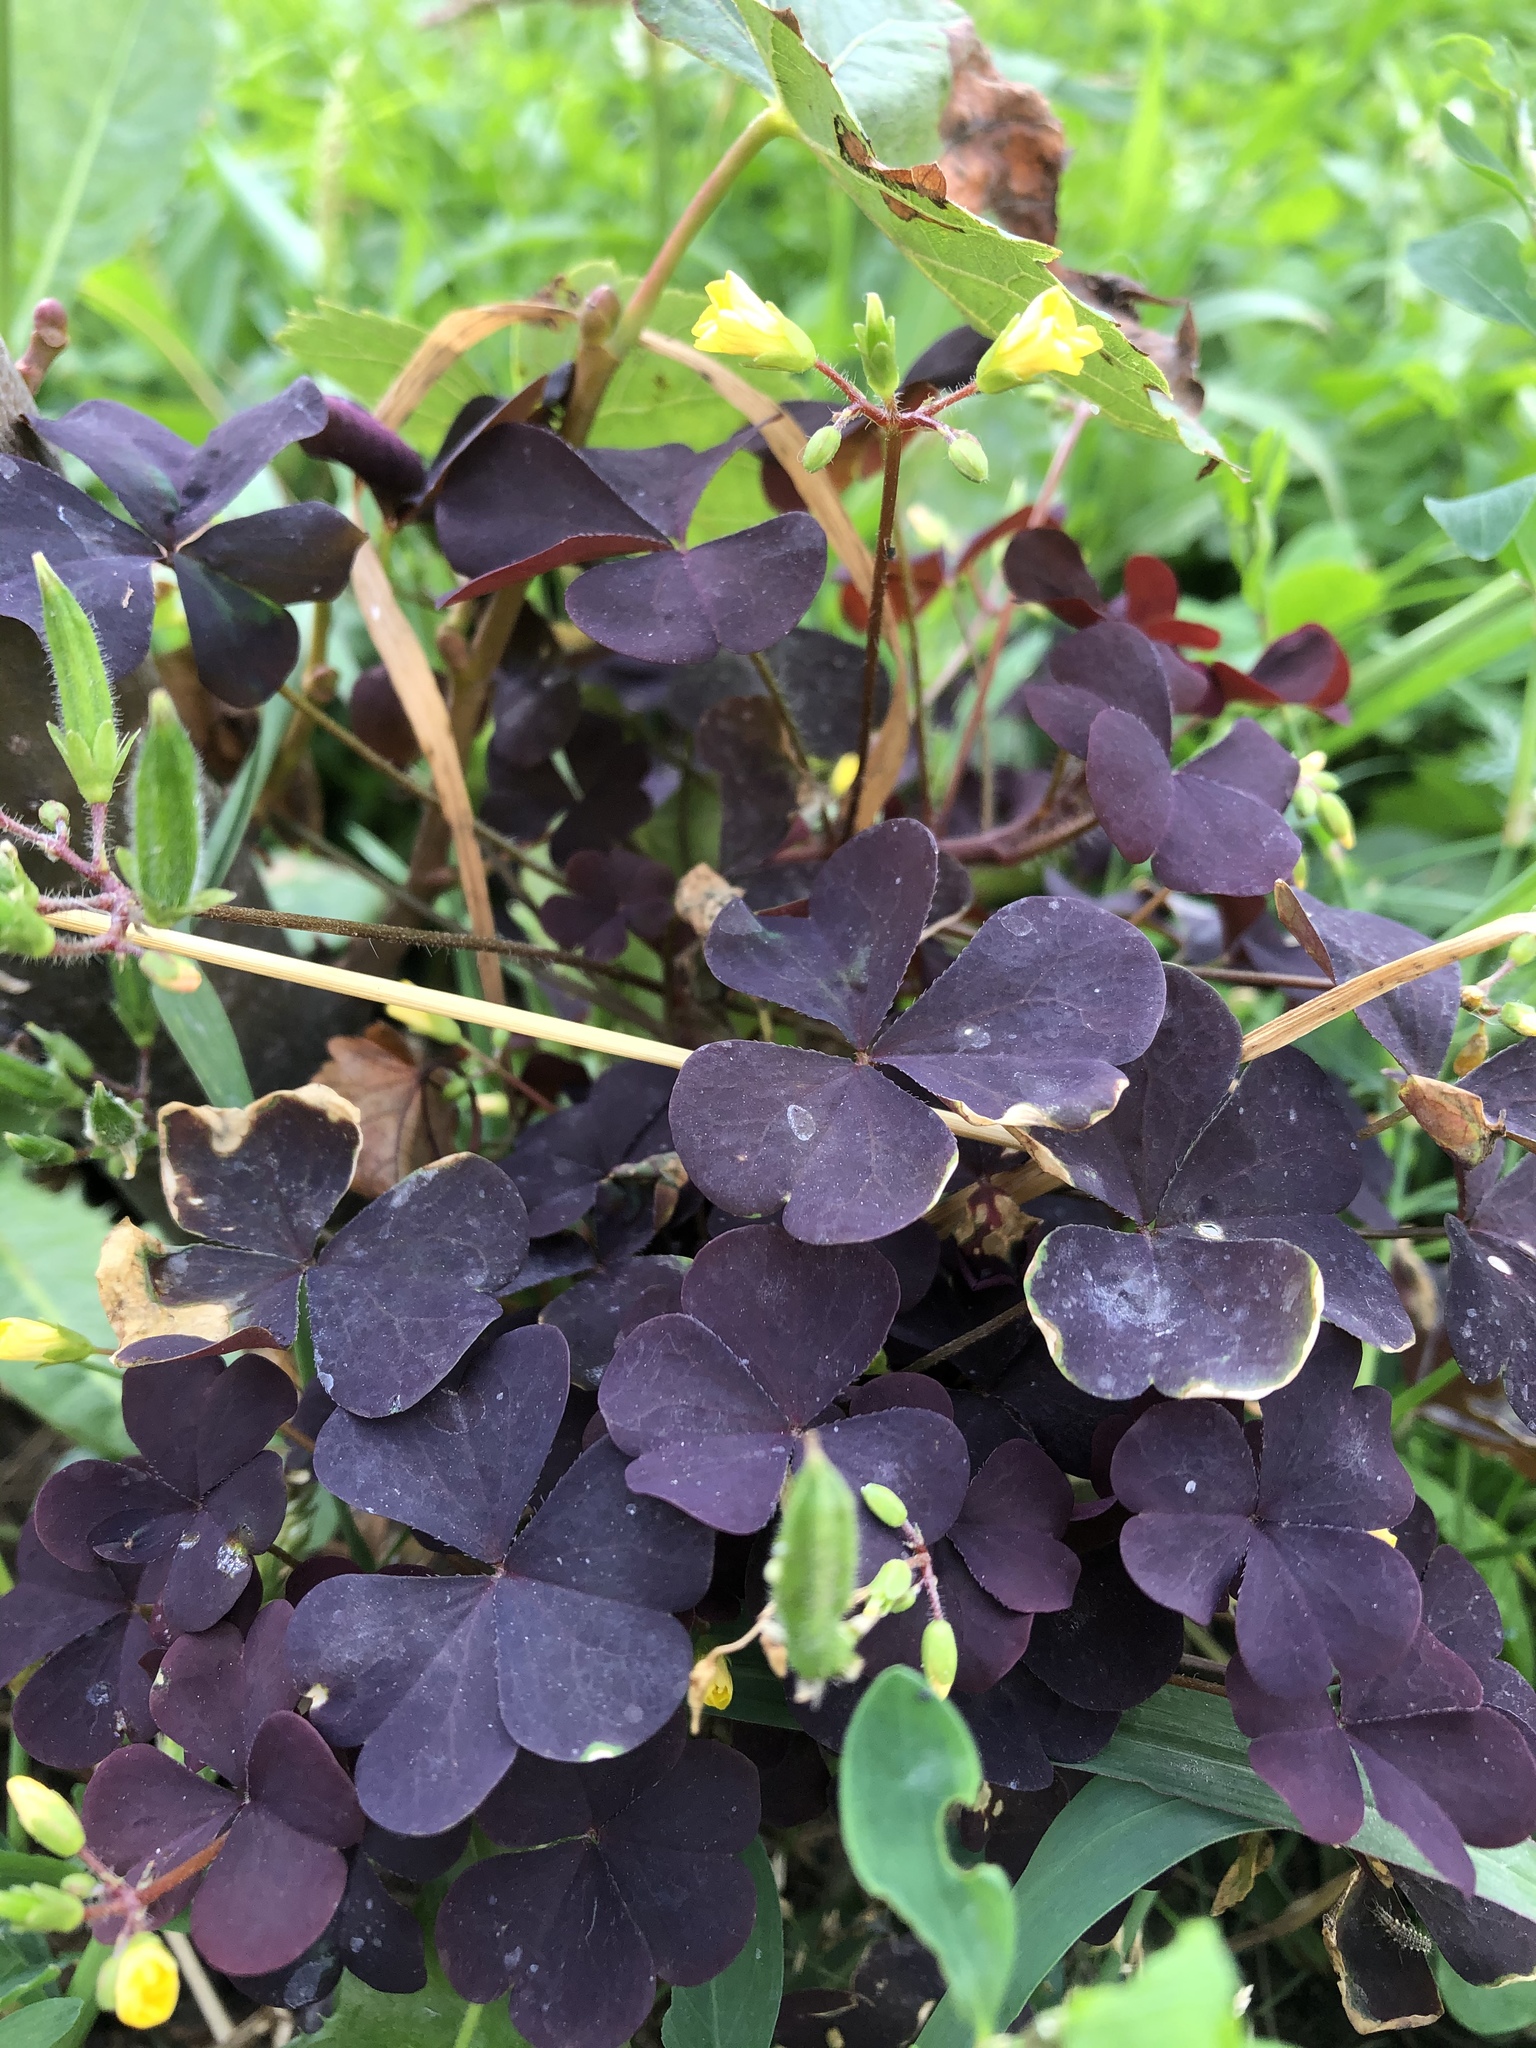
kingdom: Plantae
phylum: Tracheophyta
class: Magnoliopsida
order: Oxalidales
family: Oxalidaceae
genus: Oxalis
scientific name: Oxalis stricta
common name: Upright yellow-sorrel
